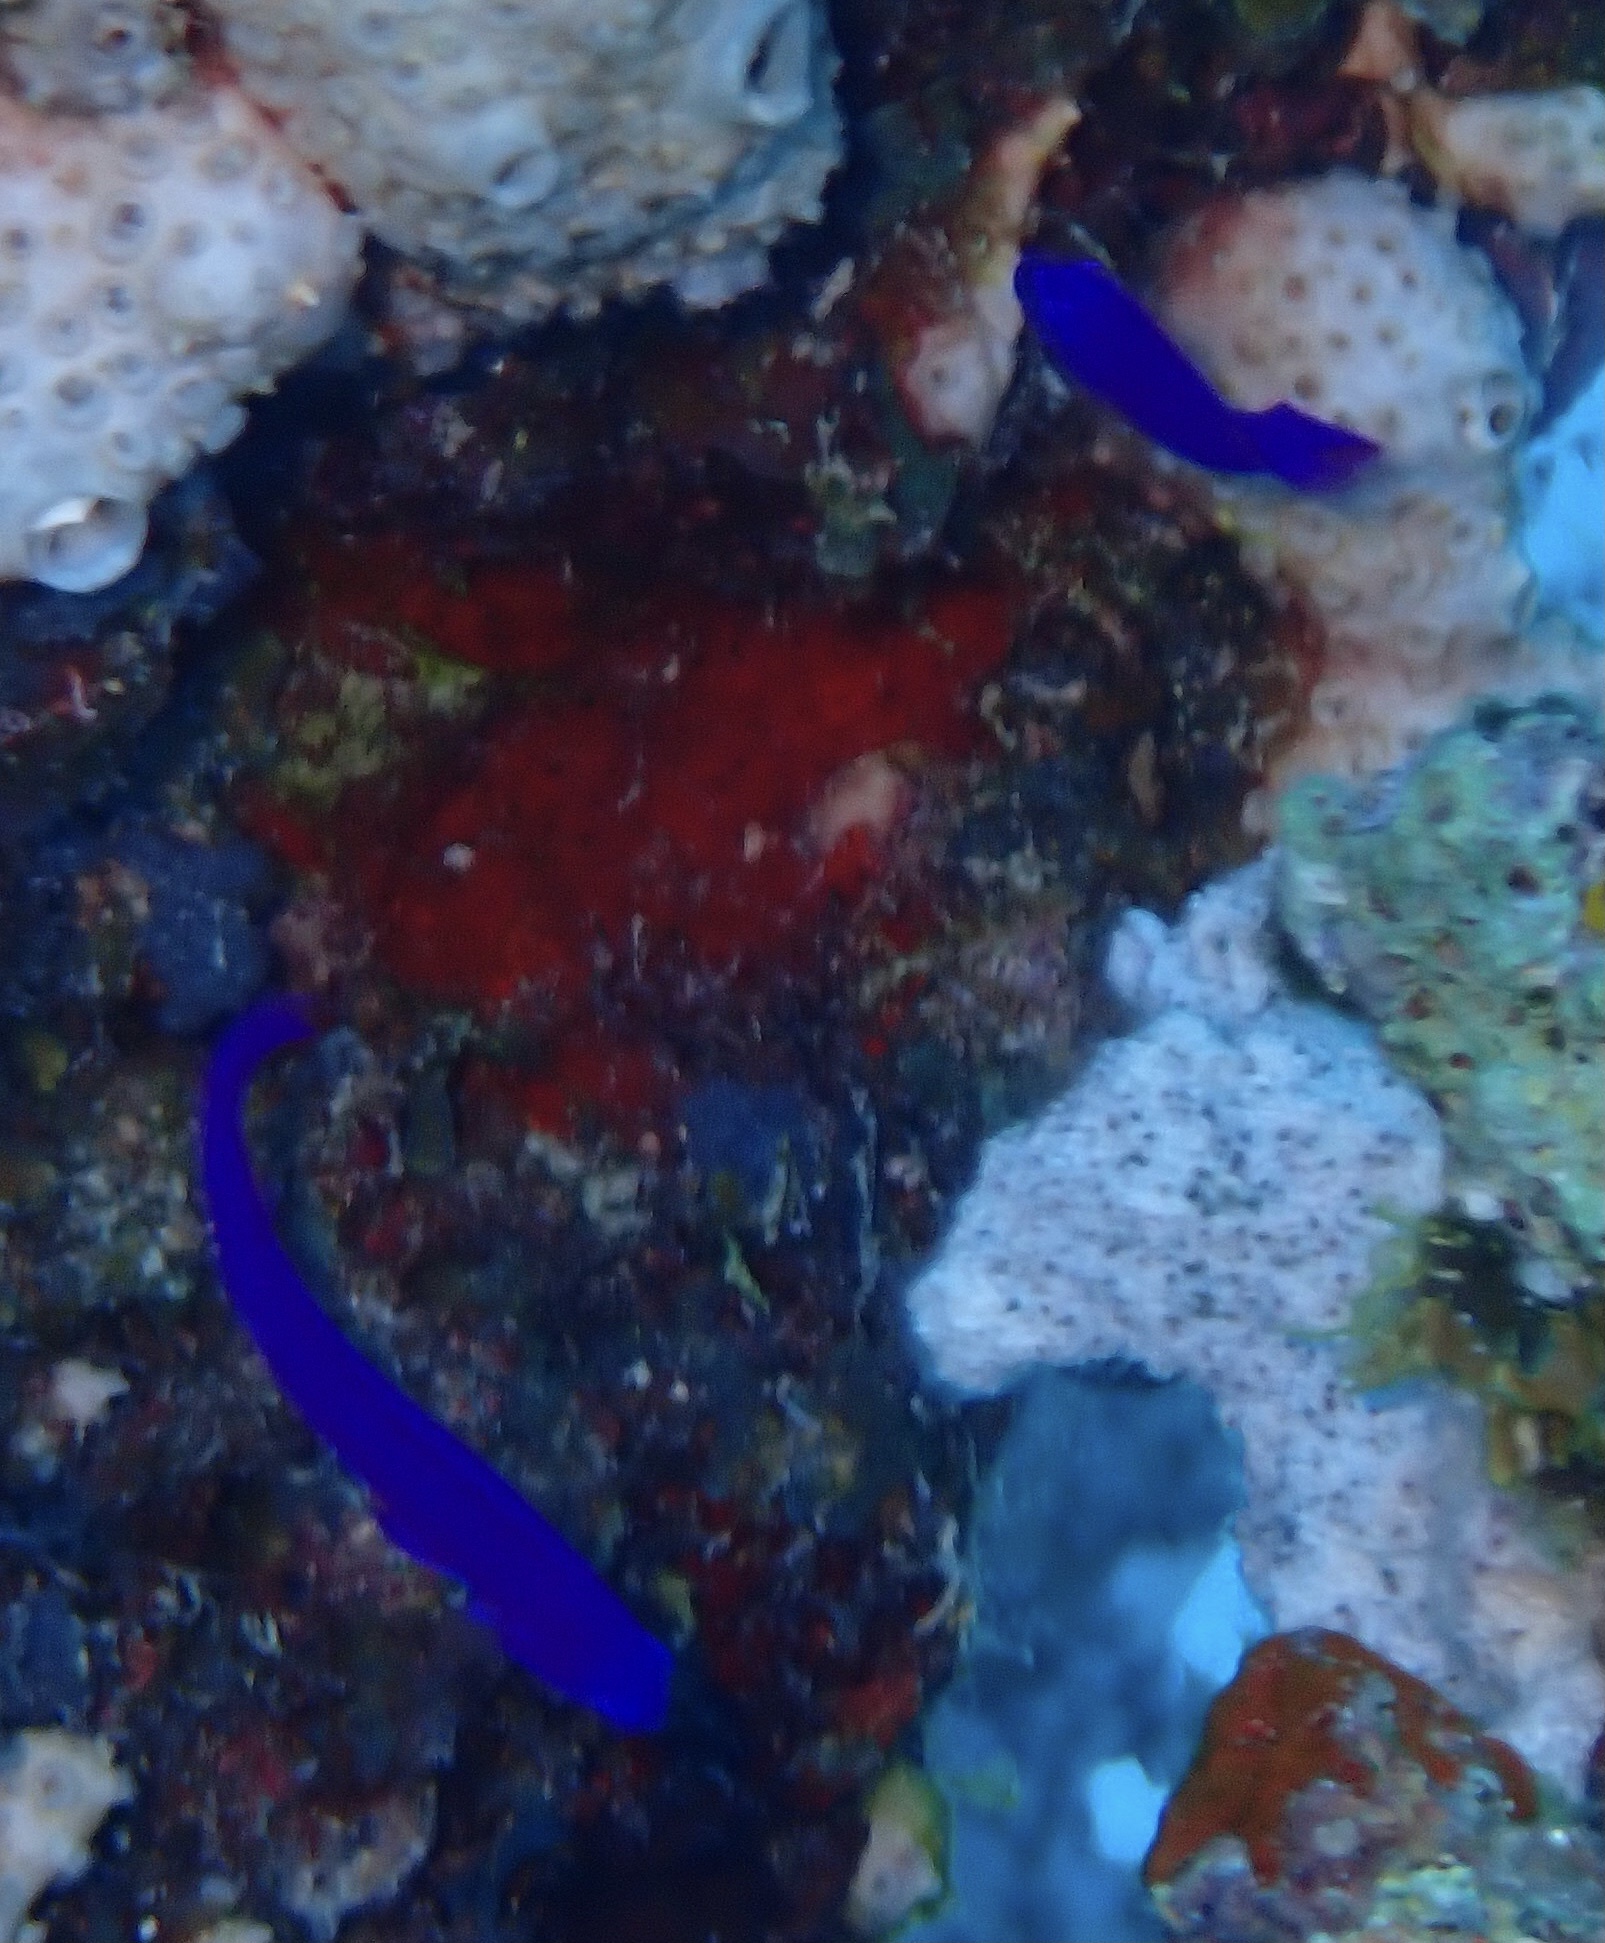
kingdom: Animalia
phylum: Chordata
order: Perciformes
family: Pseudochromidae
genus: Pseudochromis
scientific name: Pseudochromis fridmani
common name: Orchid dottyback
